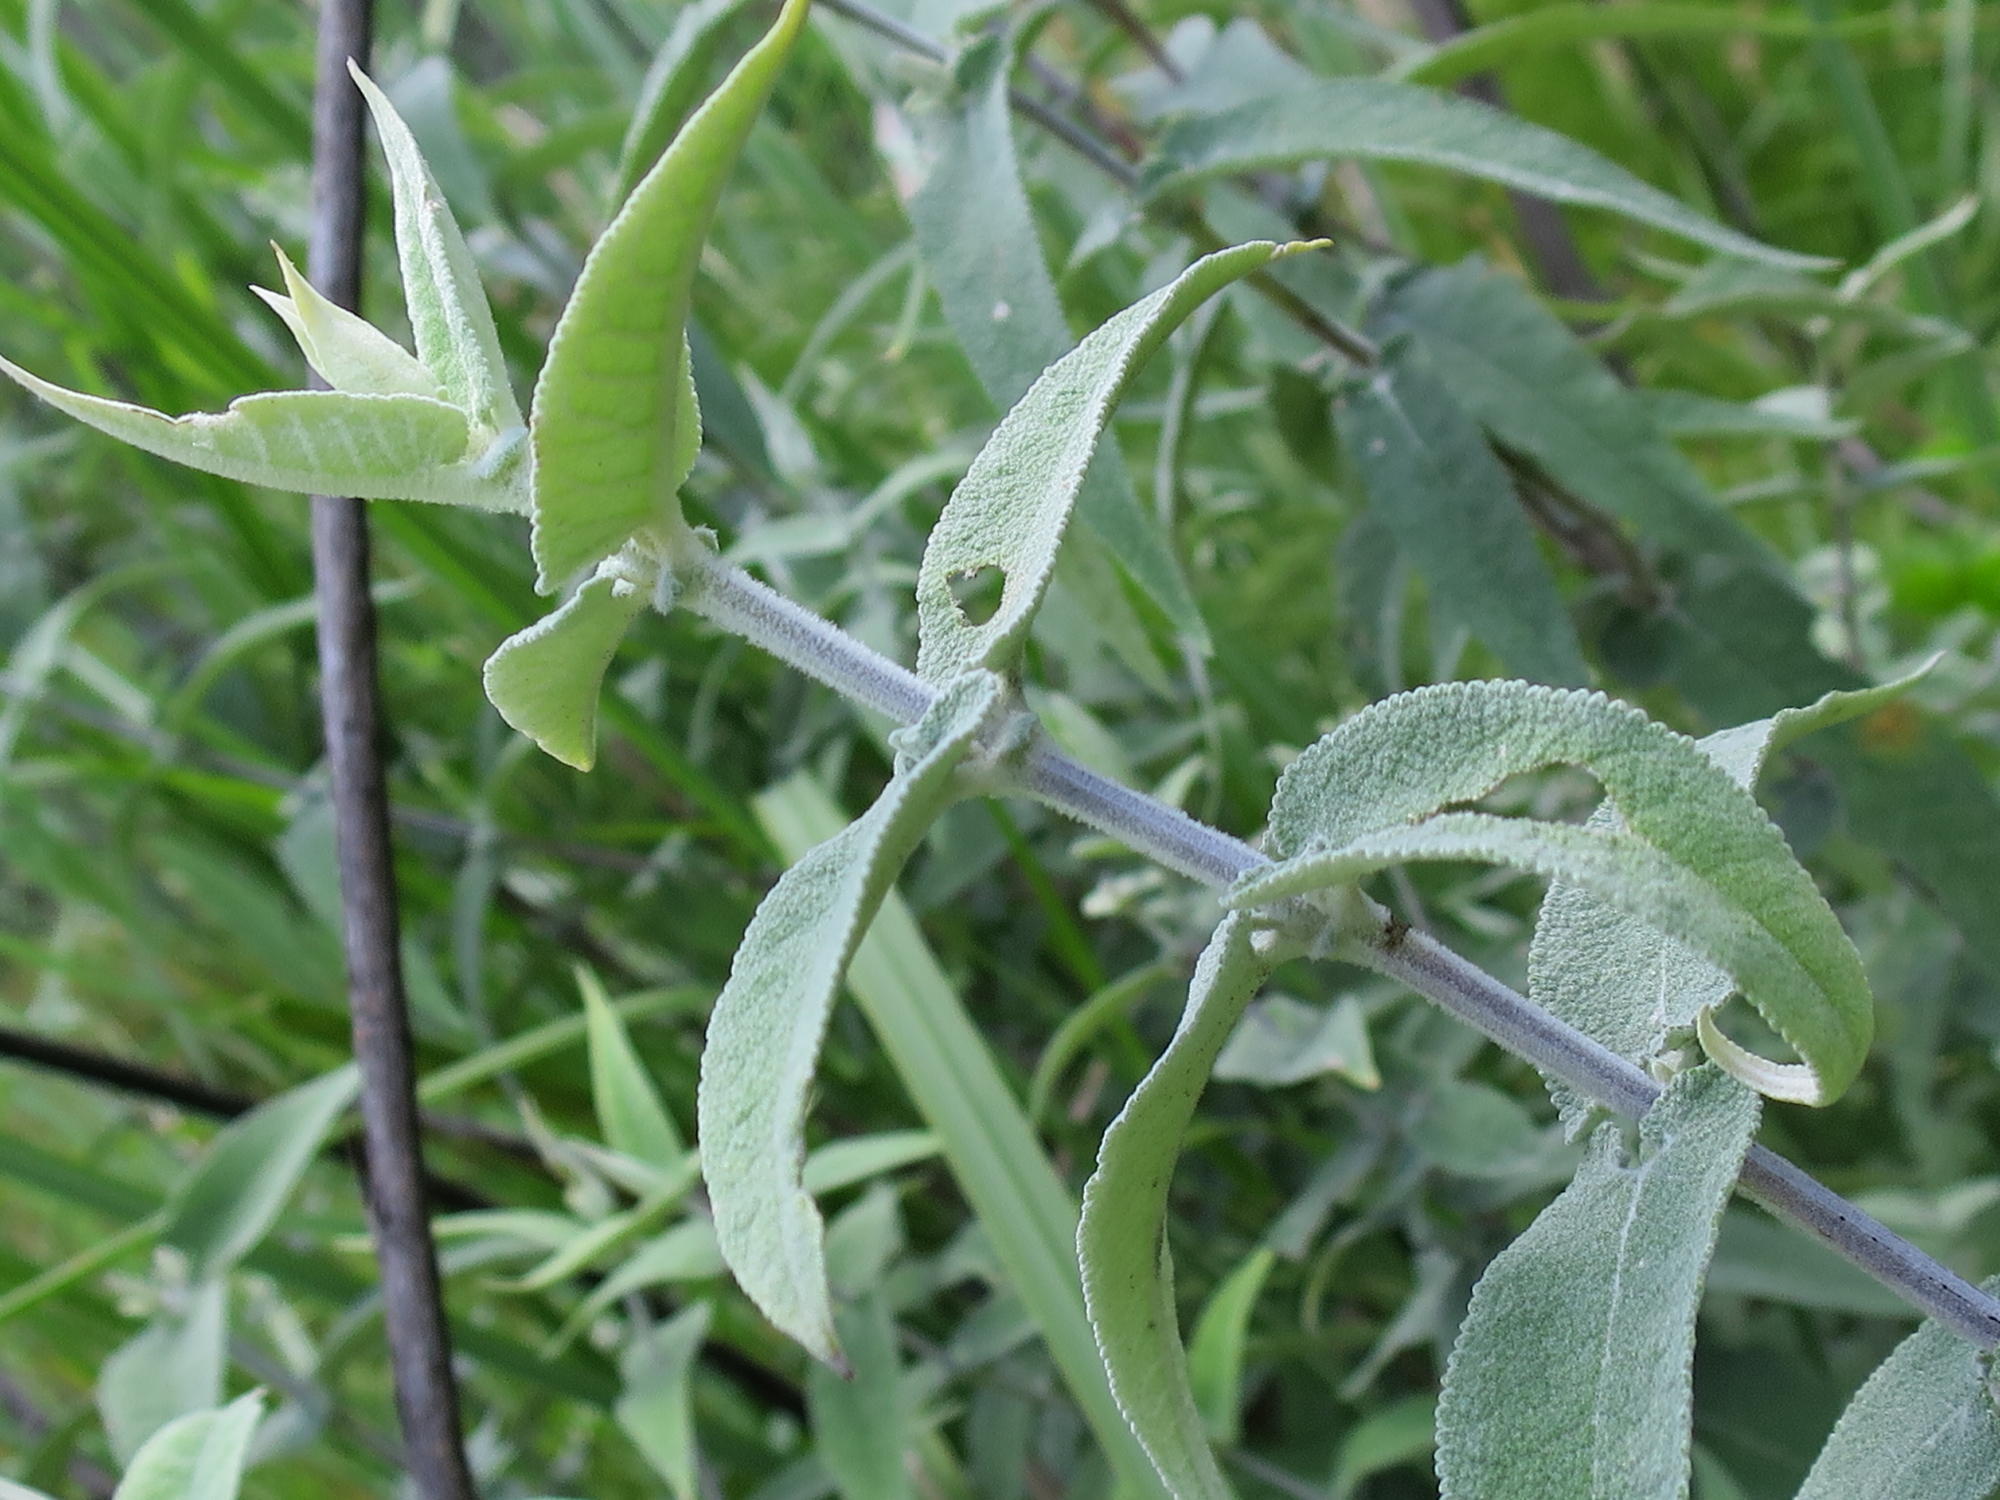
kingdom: Plantae
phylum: Tracheophyta
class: Magnoliopsida
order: Lamiales
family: Scrophulariaceae
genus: Buddleja
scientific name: Buddleja salviifolia
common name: Sagewood
